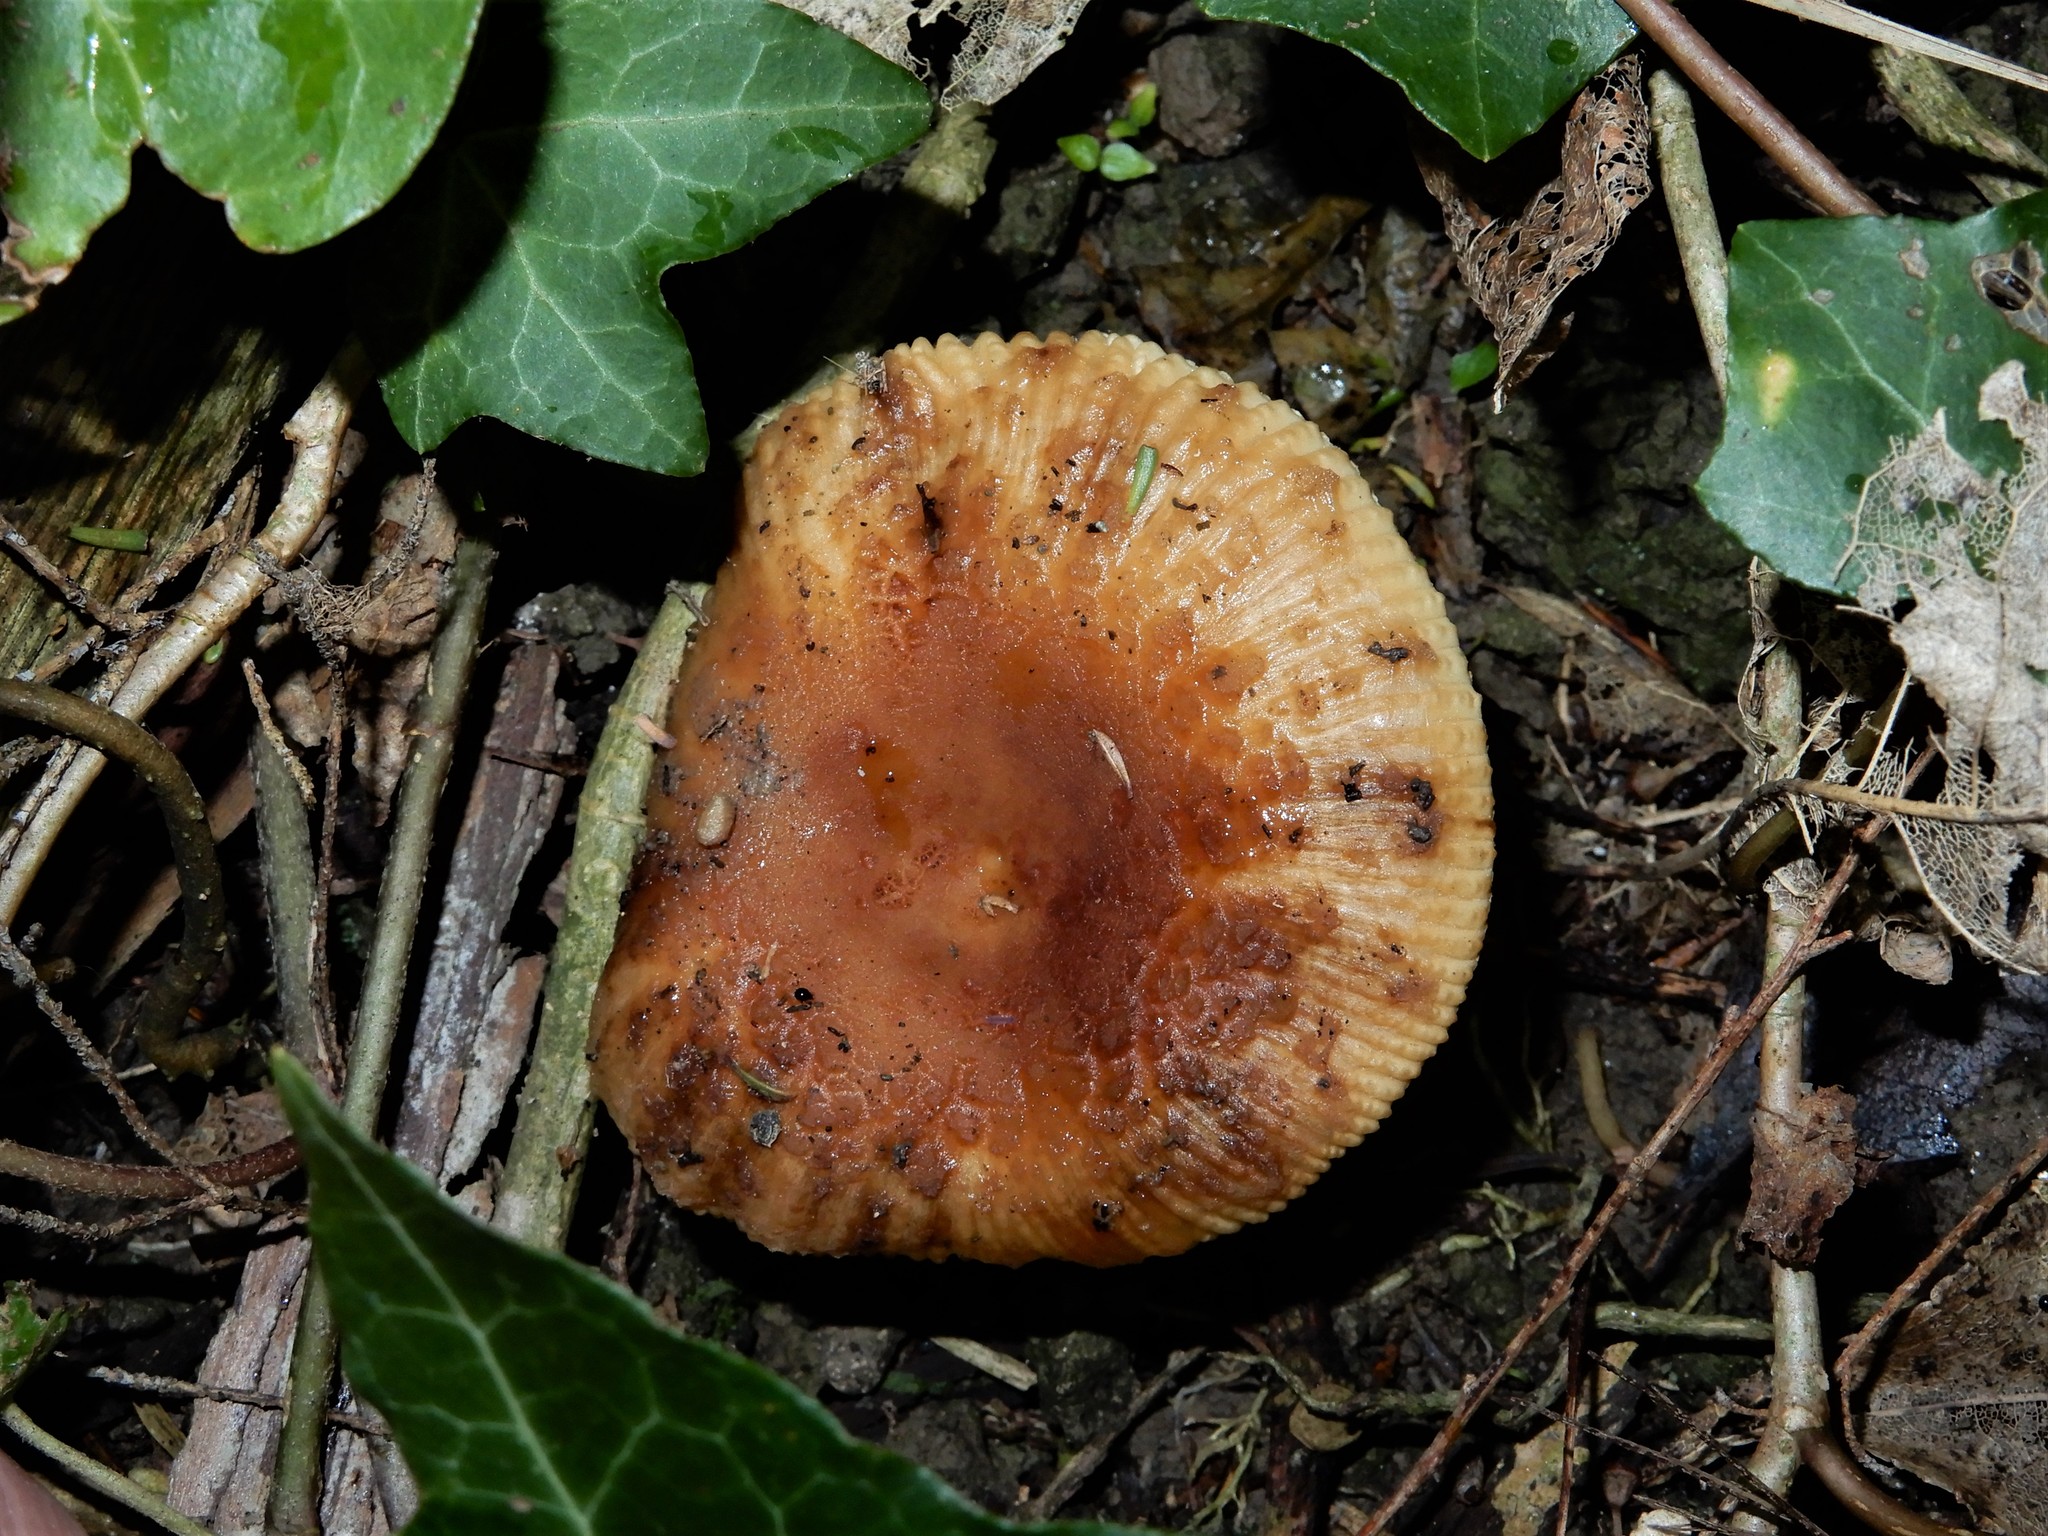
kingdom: Fungi
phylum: Basidiomycota
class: Agaricomycetes
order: Russulales
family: Russulaceae
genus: Russula
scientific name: Russula novae-zelandiae
